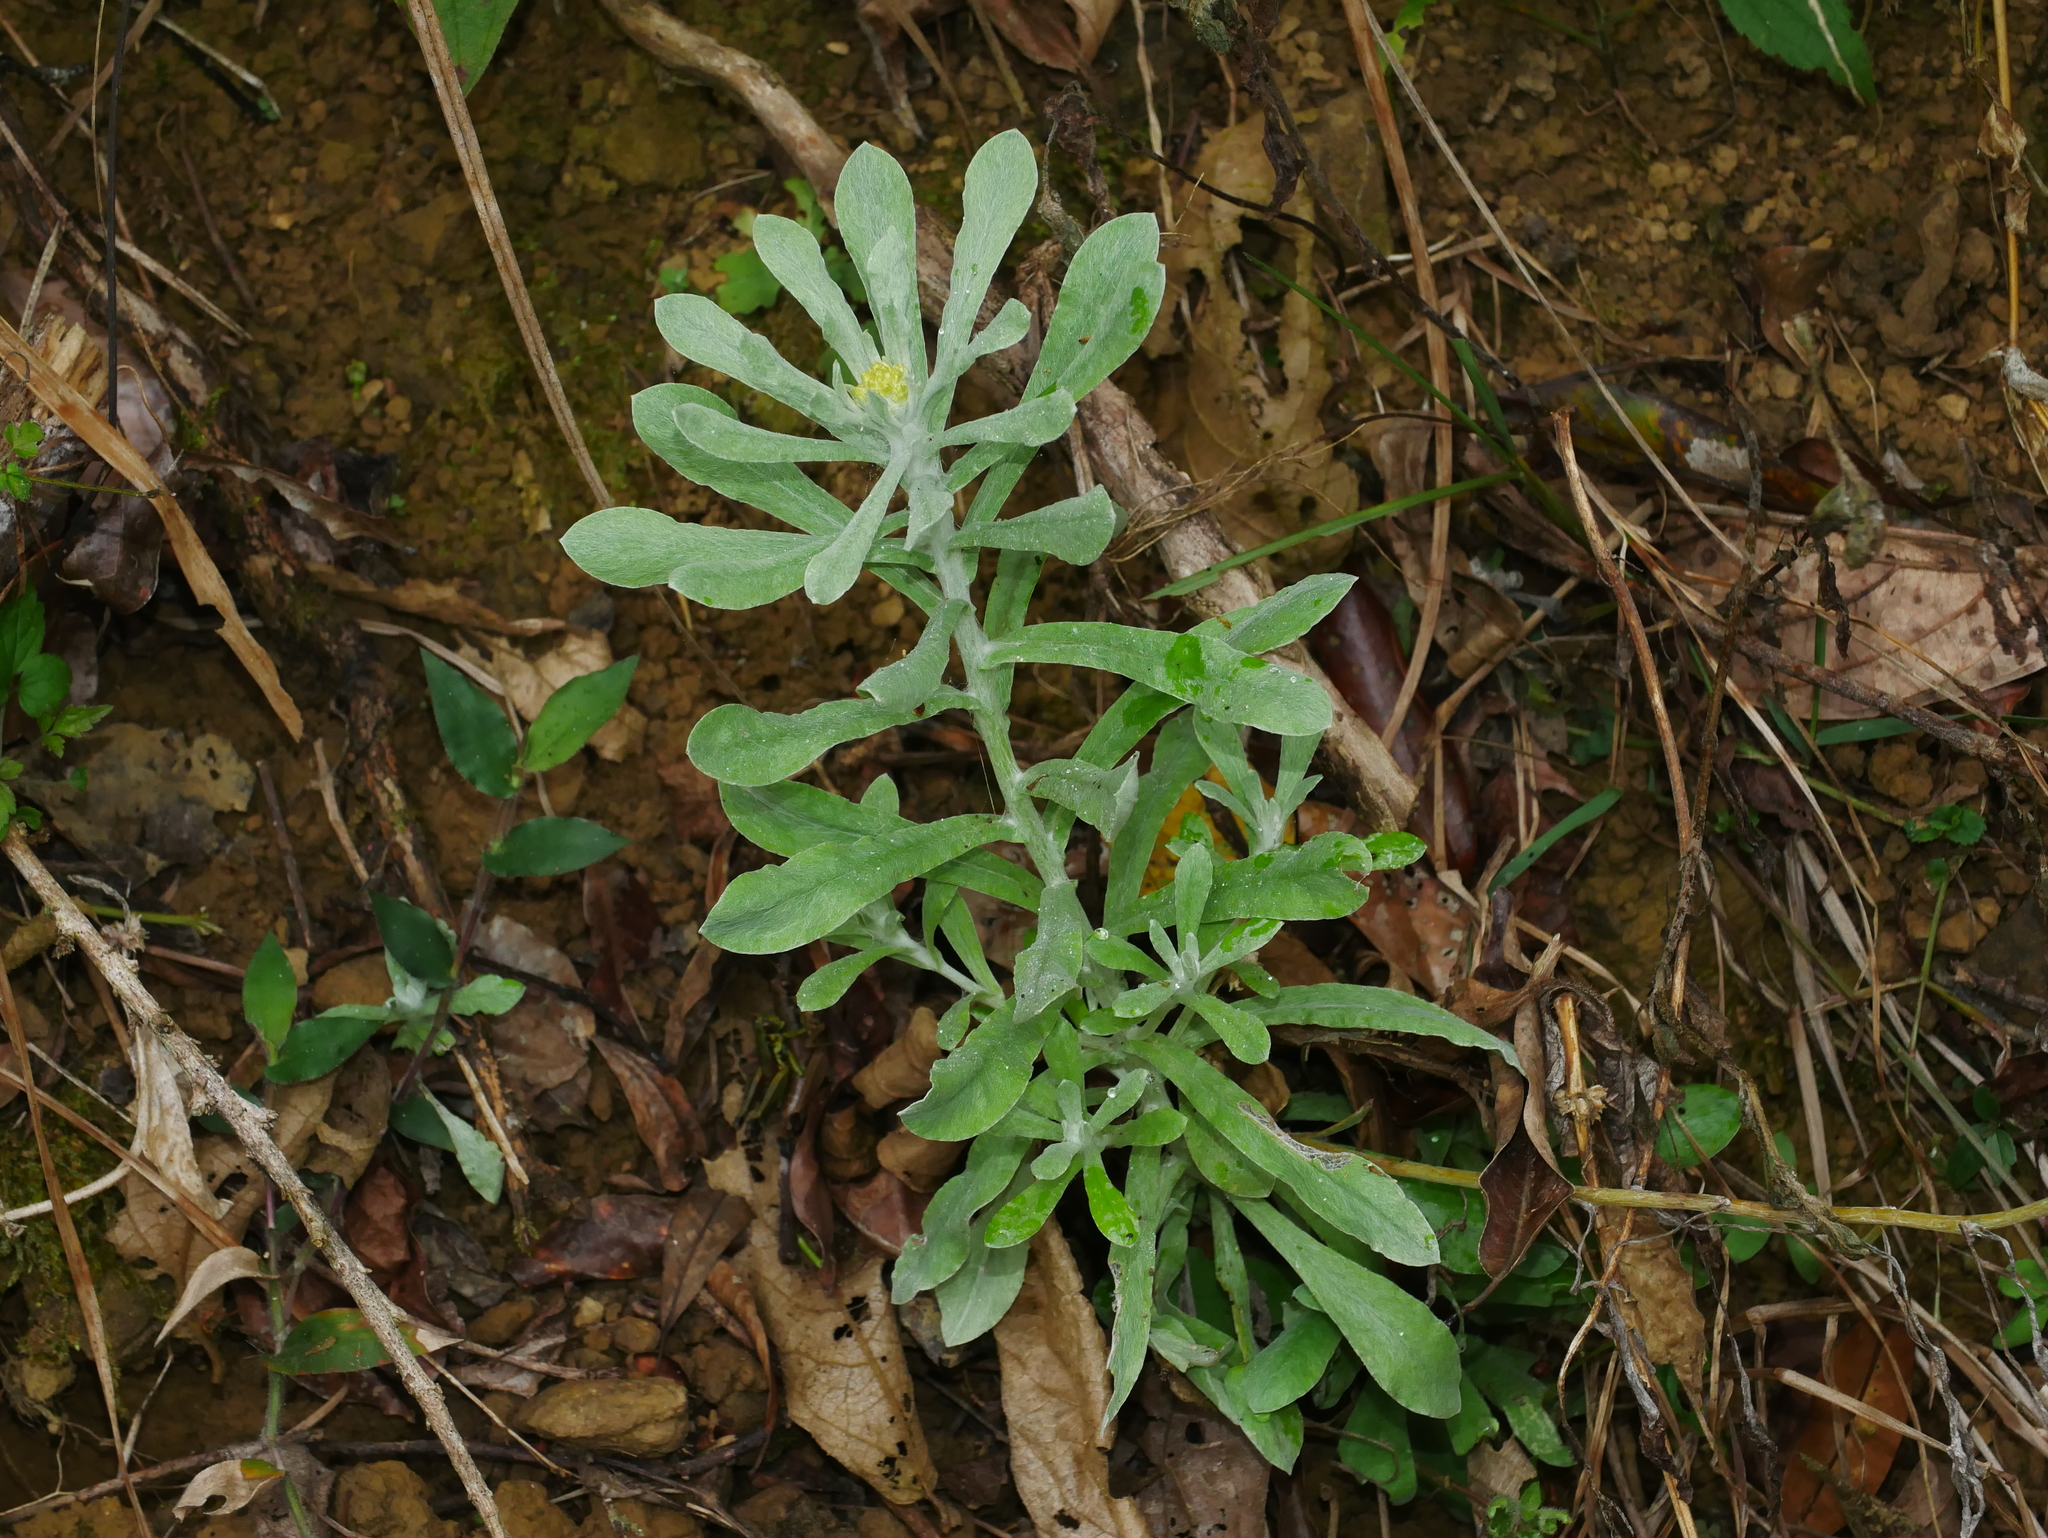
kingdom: Plantae
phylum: Tracheophyta
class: Magnoliopsida
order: Asterales
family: Asteraceae
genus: Pseudognaphalium
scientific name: Pseudognaphalium affine
